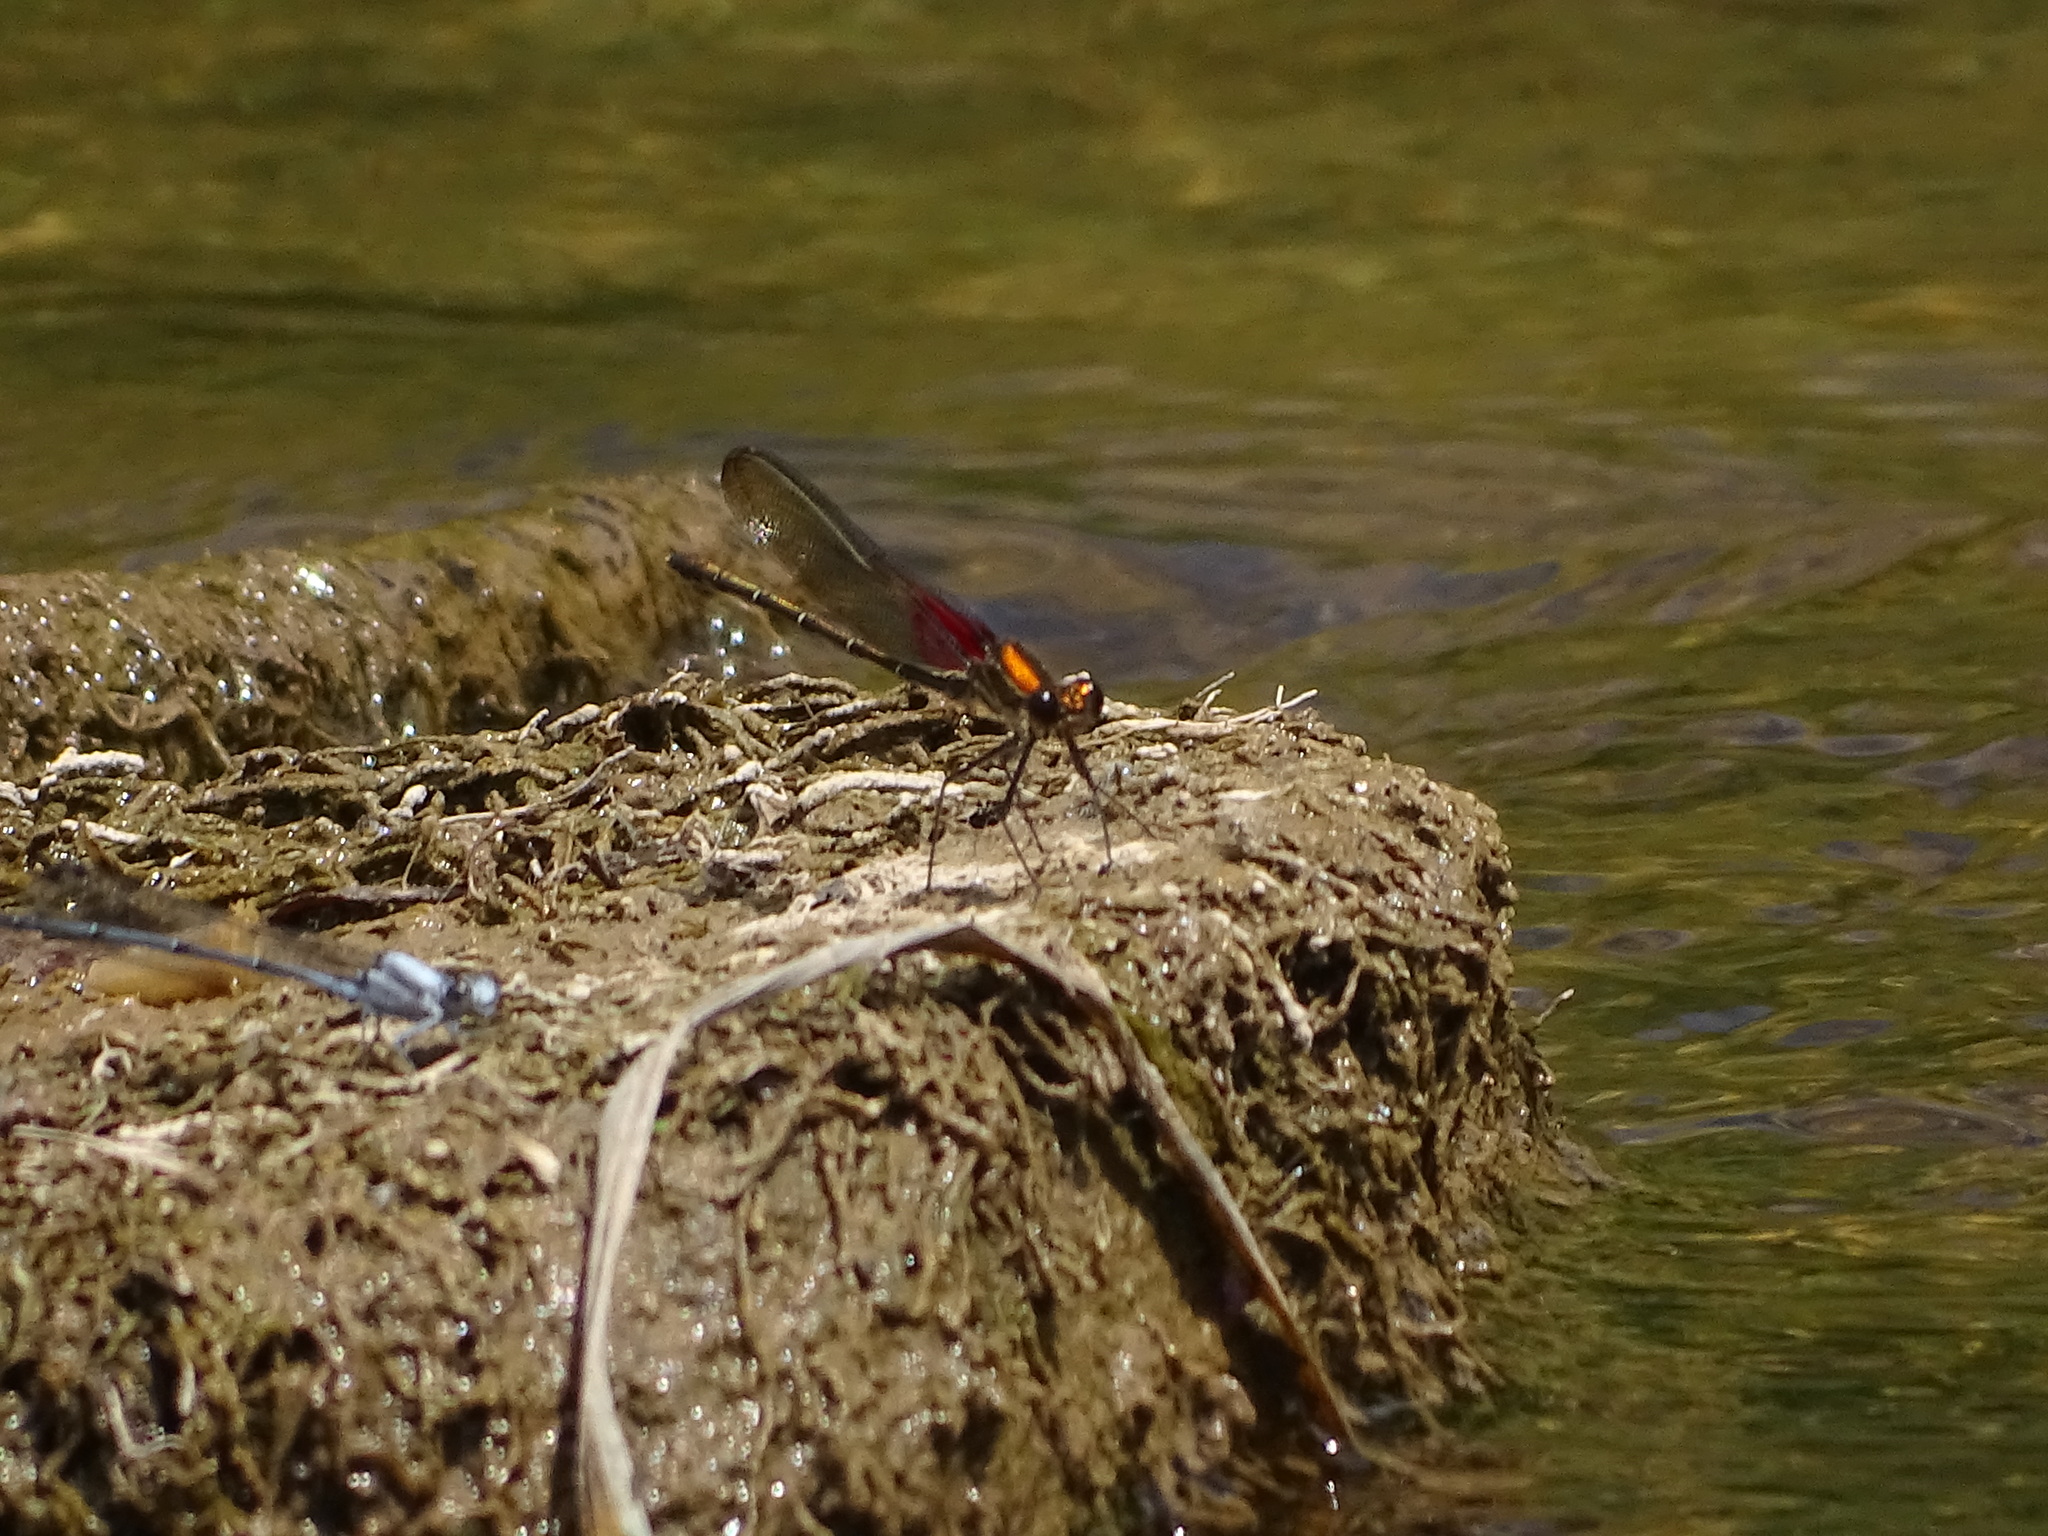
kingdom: Animalia
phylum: Arthropoda
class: Insecta
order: Odonata
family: Calopterygidae
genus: Hetaerina
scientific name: Hetaerina americana
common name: American rubyspot
